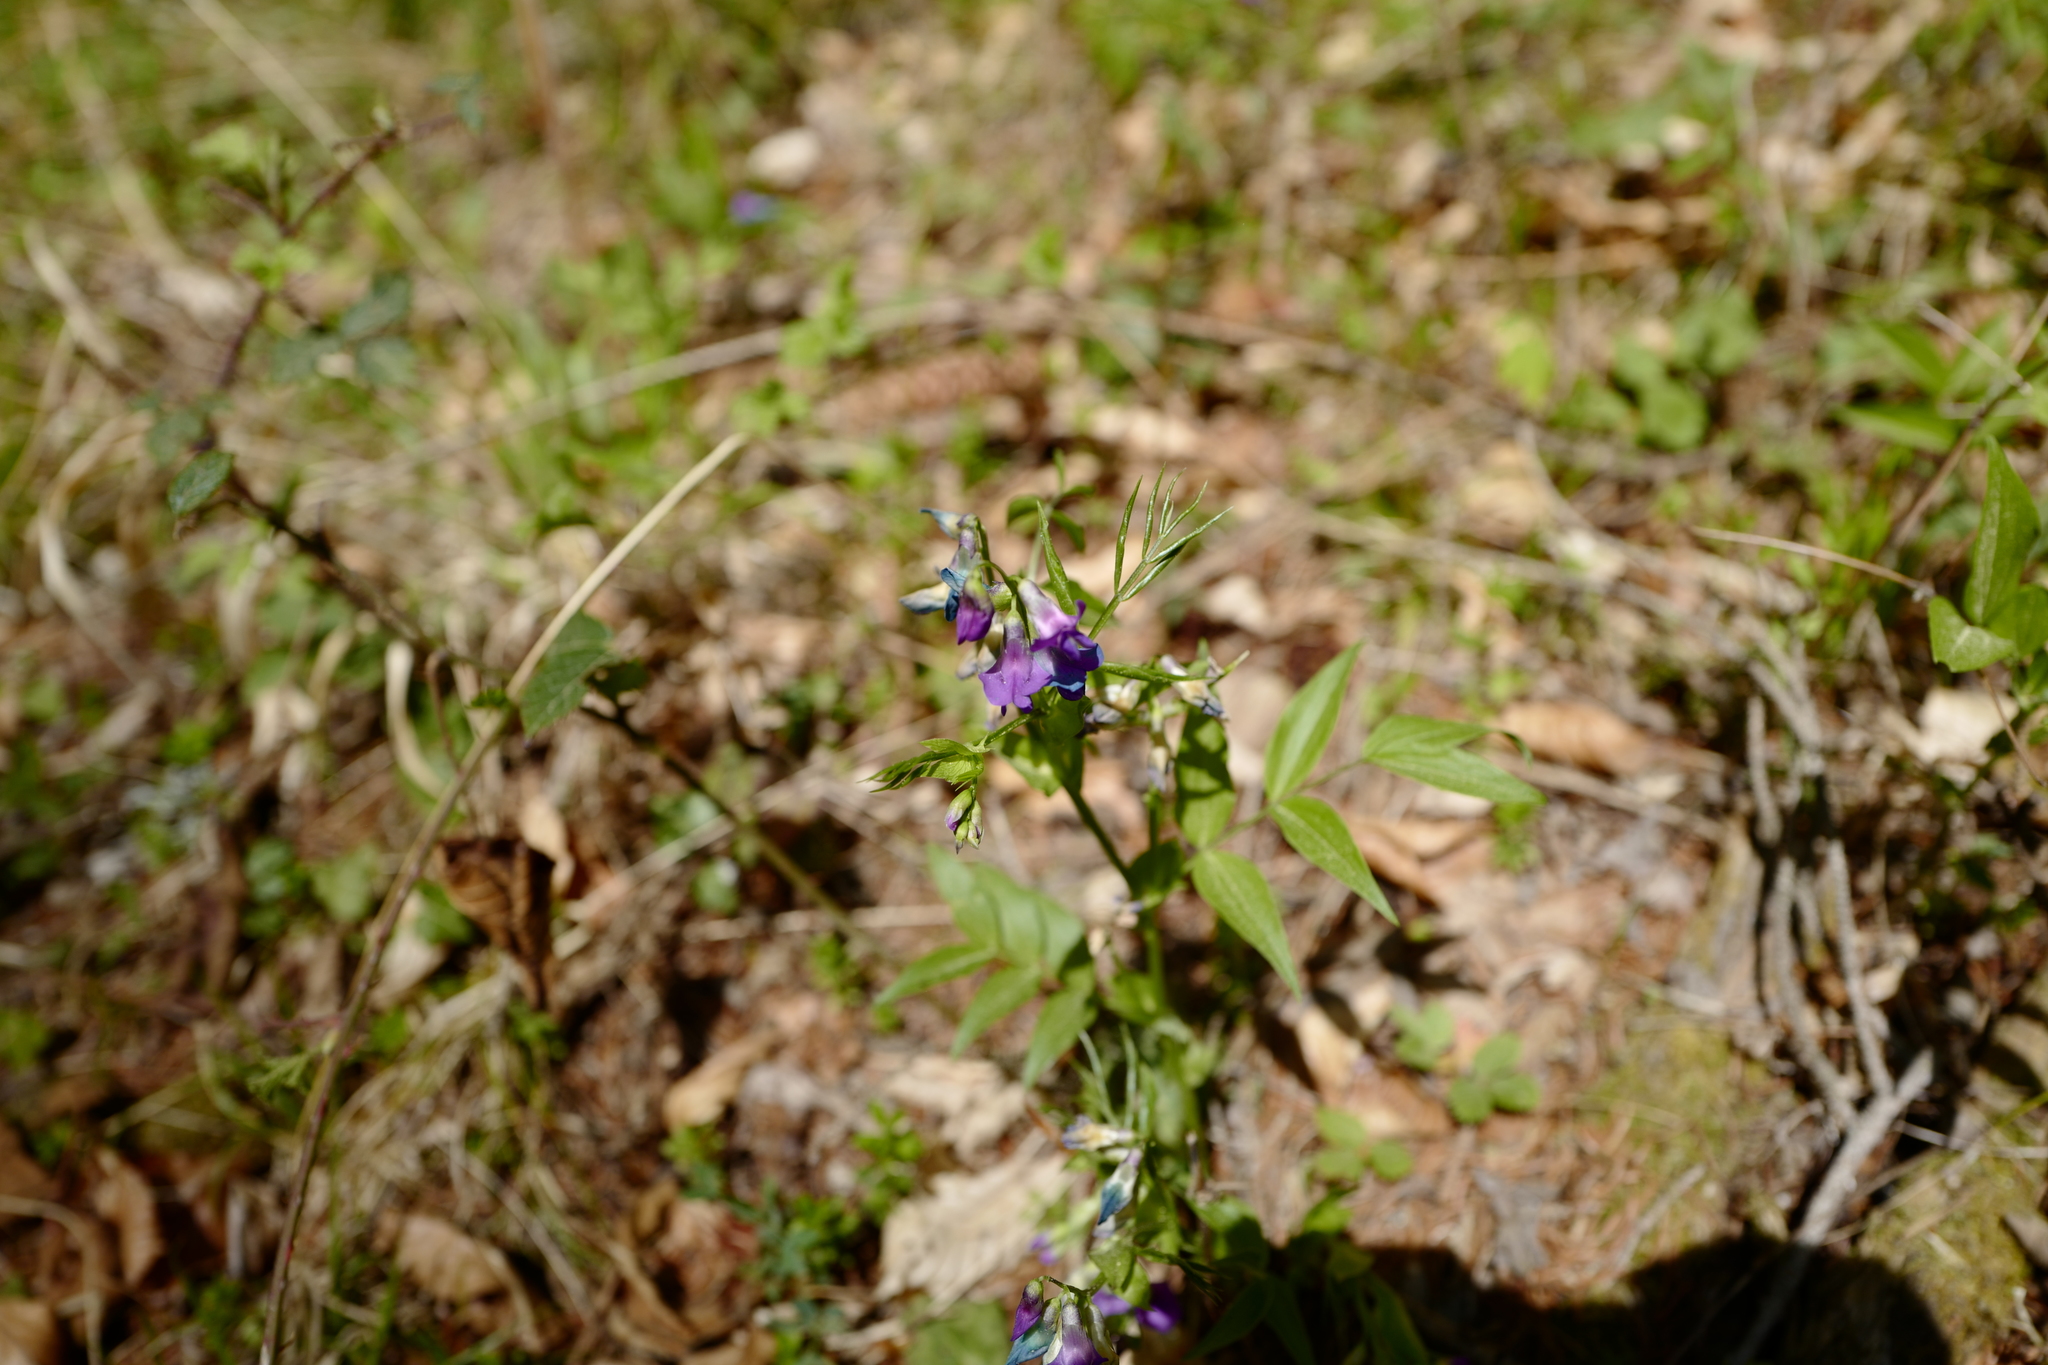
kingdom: Plantae
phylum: Tracheophyta
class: Magnoliopsida
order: Fabales
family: Fabaceae
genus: Lathyrus
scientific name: Lathyrus vernus
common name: Spring pea
